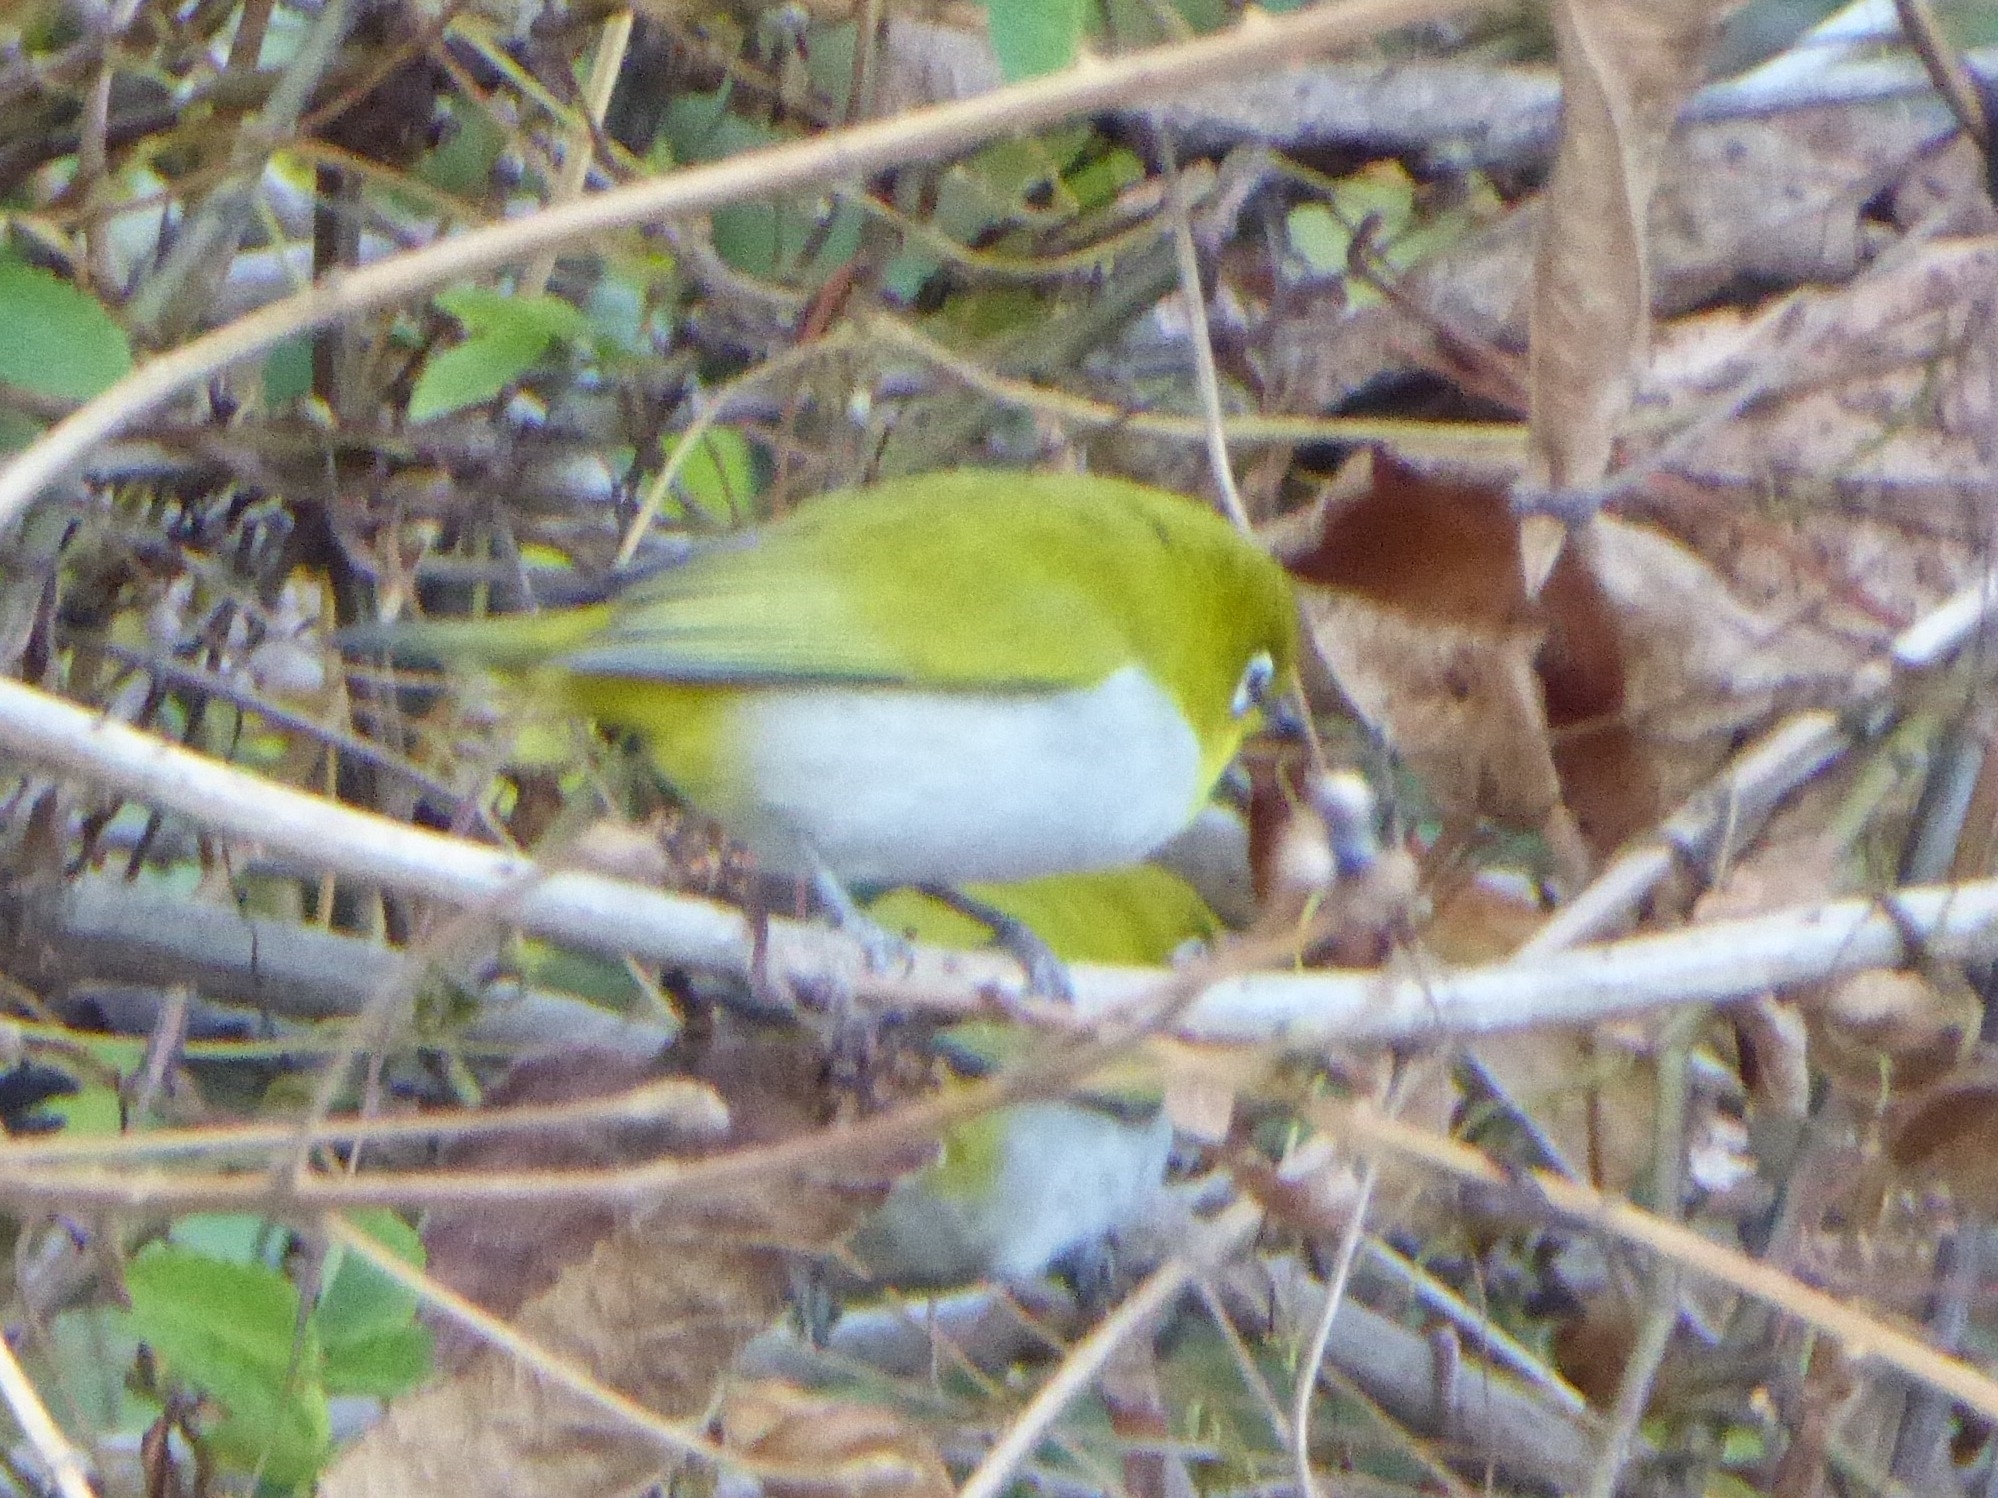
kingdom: Animalia
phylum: Chordata
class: Aves
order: Passeriformes
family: Zosteropidae
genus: Zosterops
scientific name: Zosterops palpebrosus
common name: Oriental white-eye
